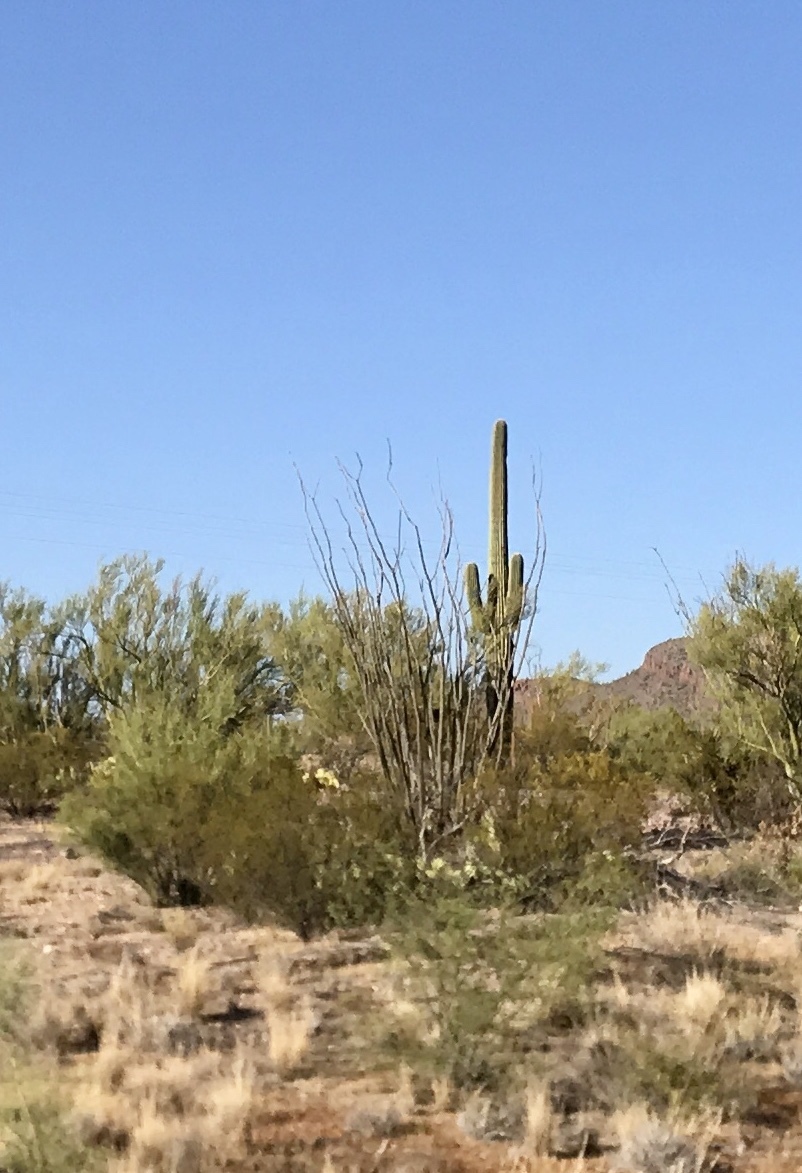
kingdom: Plantae
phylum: Tracheophyta
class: Magnoliopsida
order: Ericales
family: Fouquieriaceae
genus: Fouquieria
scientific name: Fouquieria splendens
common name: Vine-cactus
